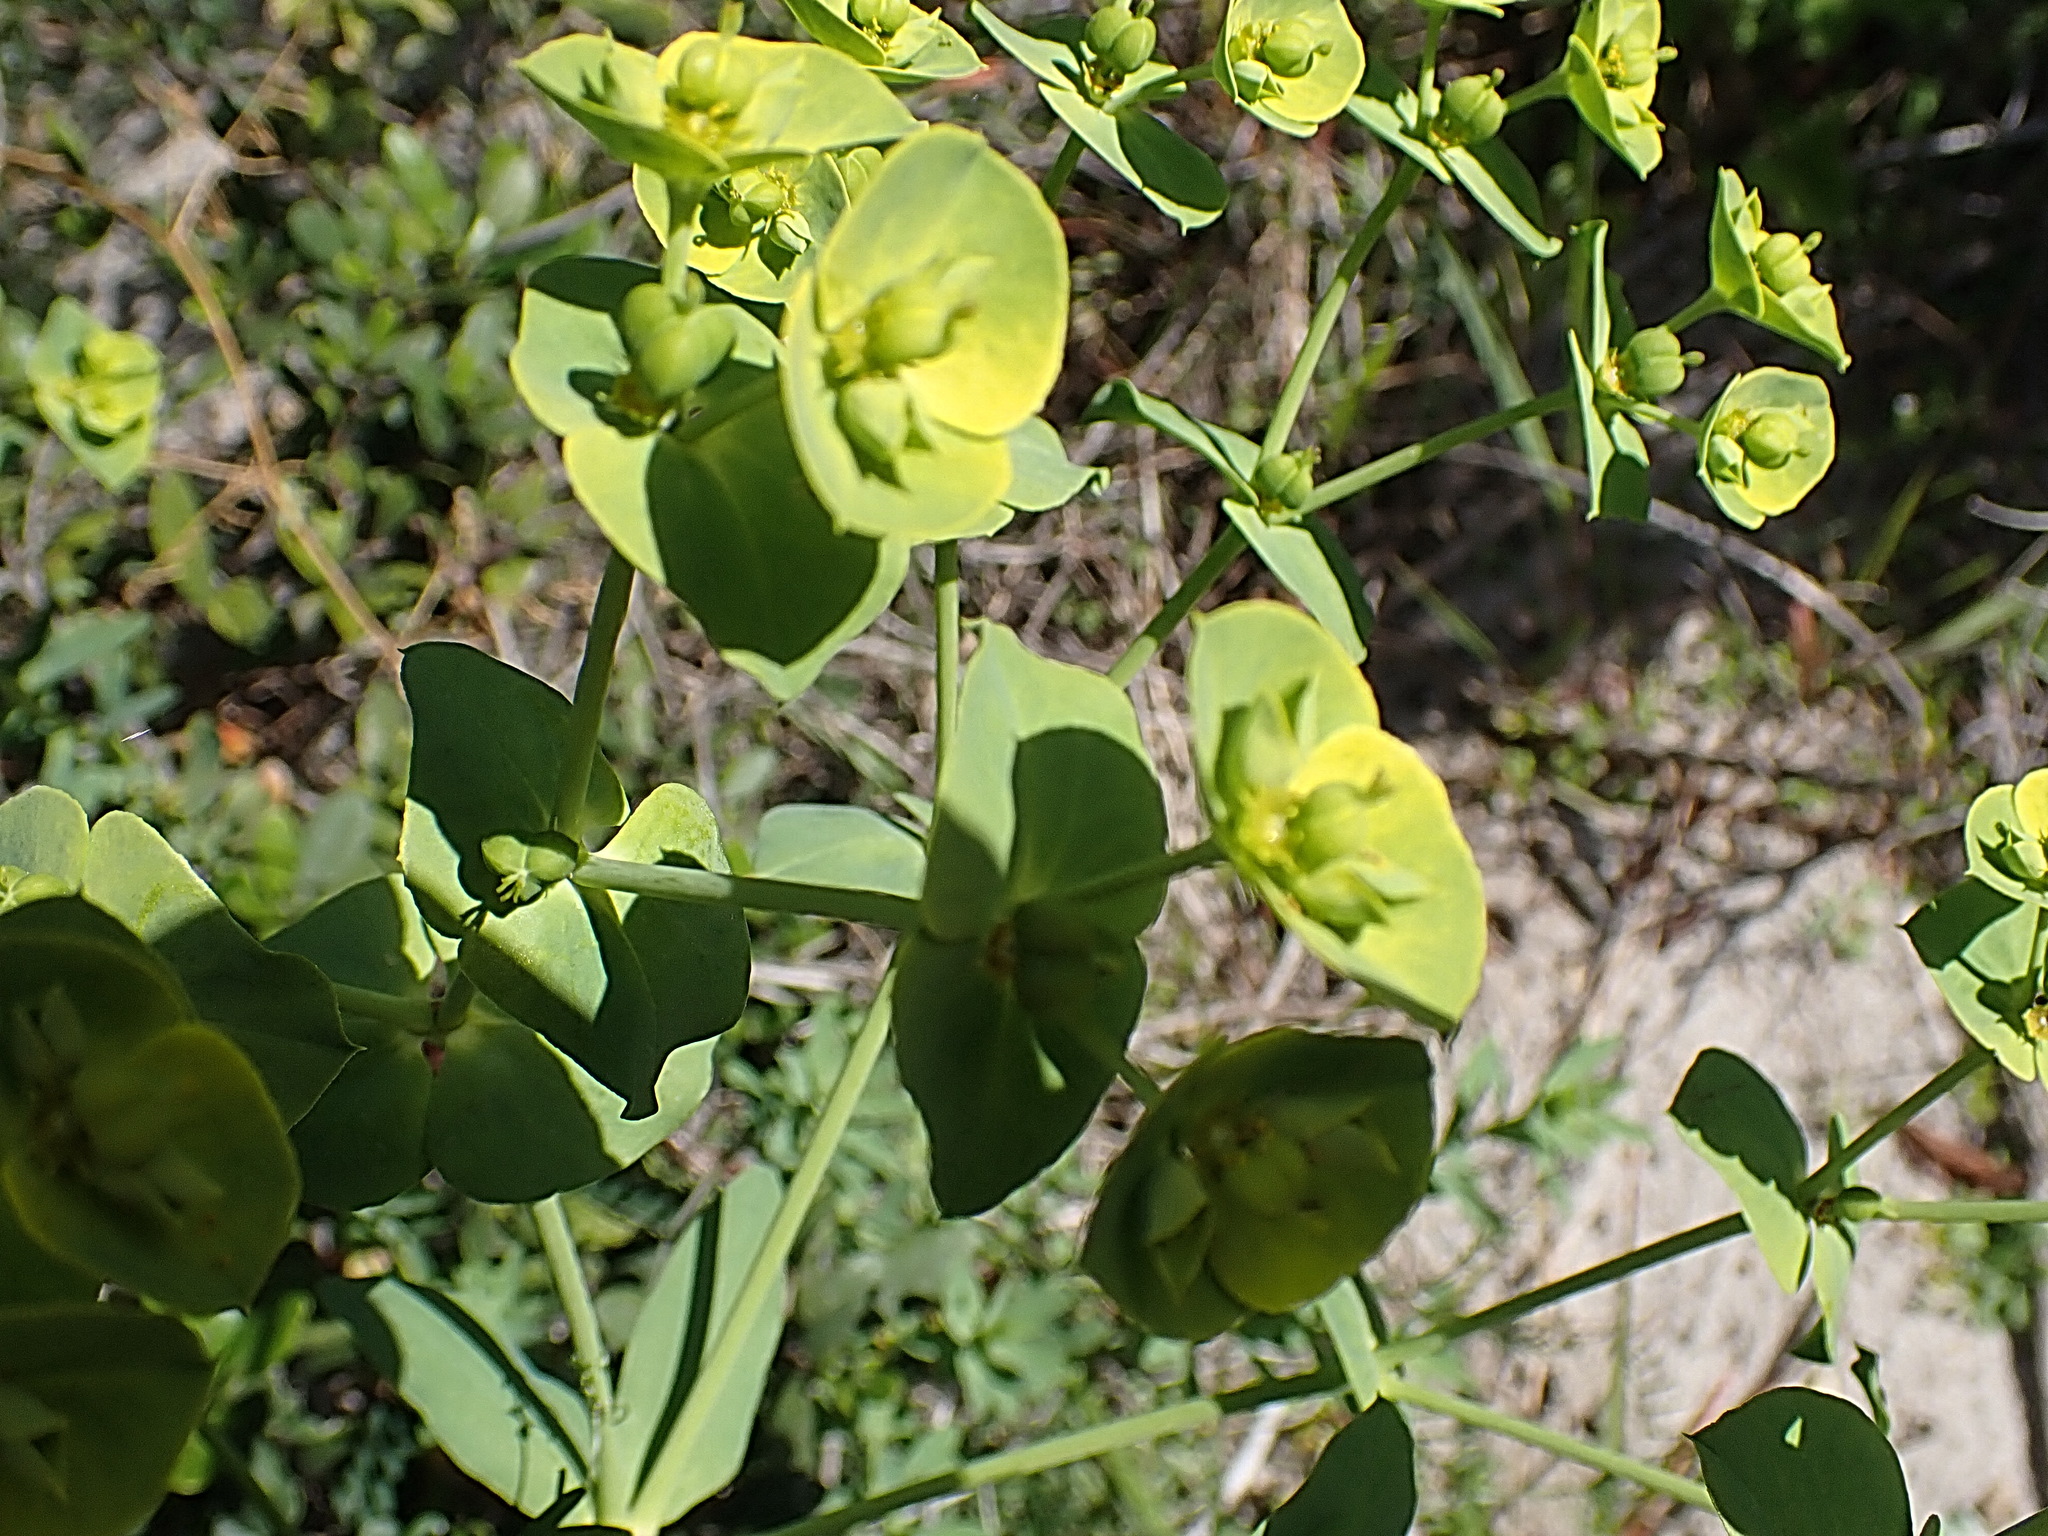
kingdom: Plantae
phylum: Tracheophyta
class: Magnoliopsida
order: Malpighiales
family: Euphorbiaceae
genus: Euphorbia
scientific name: Euphorbia terracina
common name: Geraldton carnation weed
